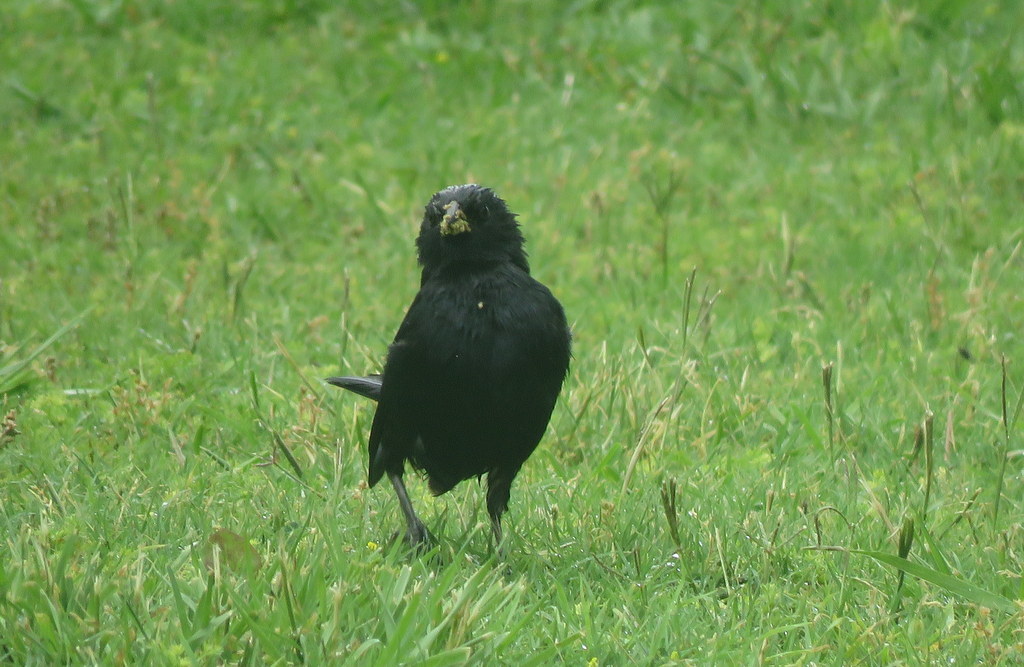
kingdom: Animalia
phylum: Chordata
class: Aves
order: Passeriformes
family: Icteridae
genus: Molothrus
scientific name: Molothrus rufoaxillaris
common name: Screaming cowbird
